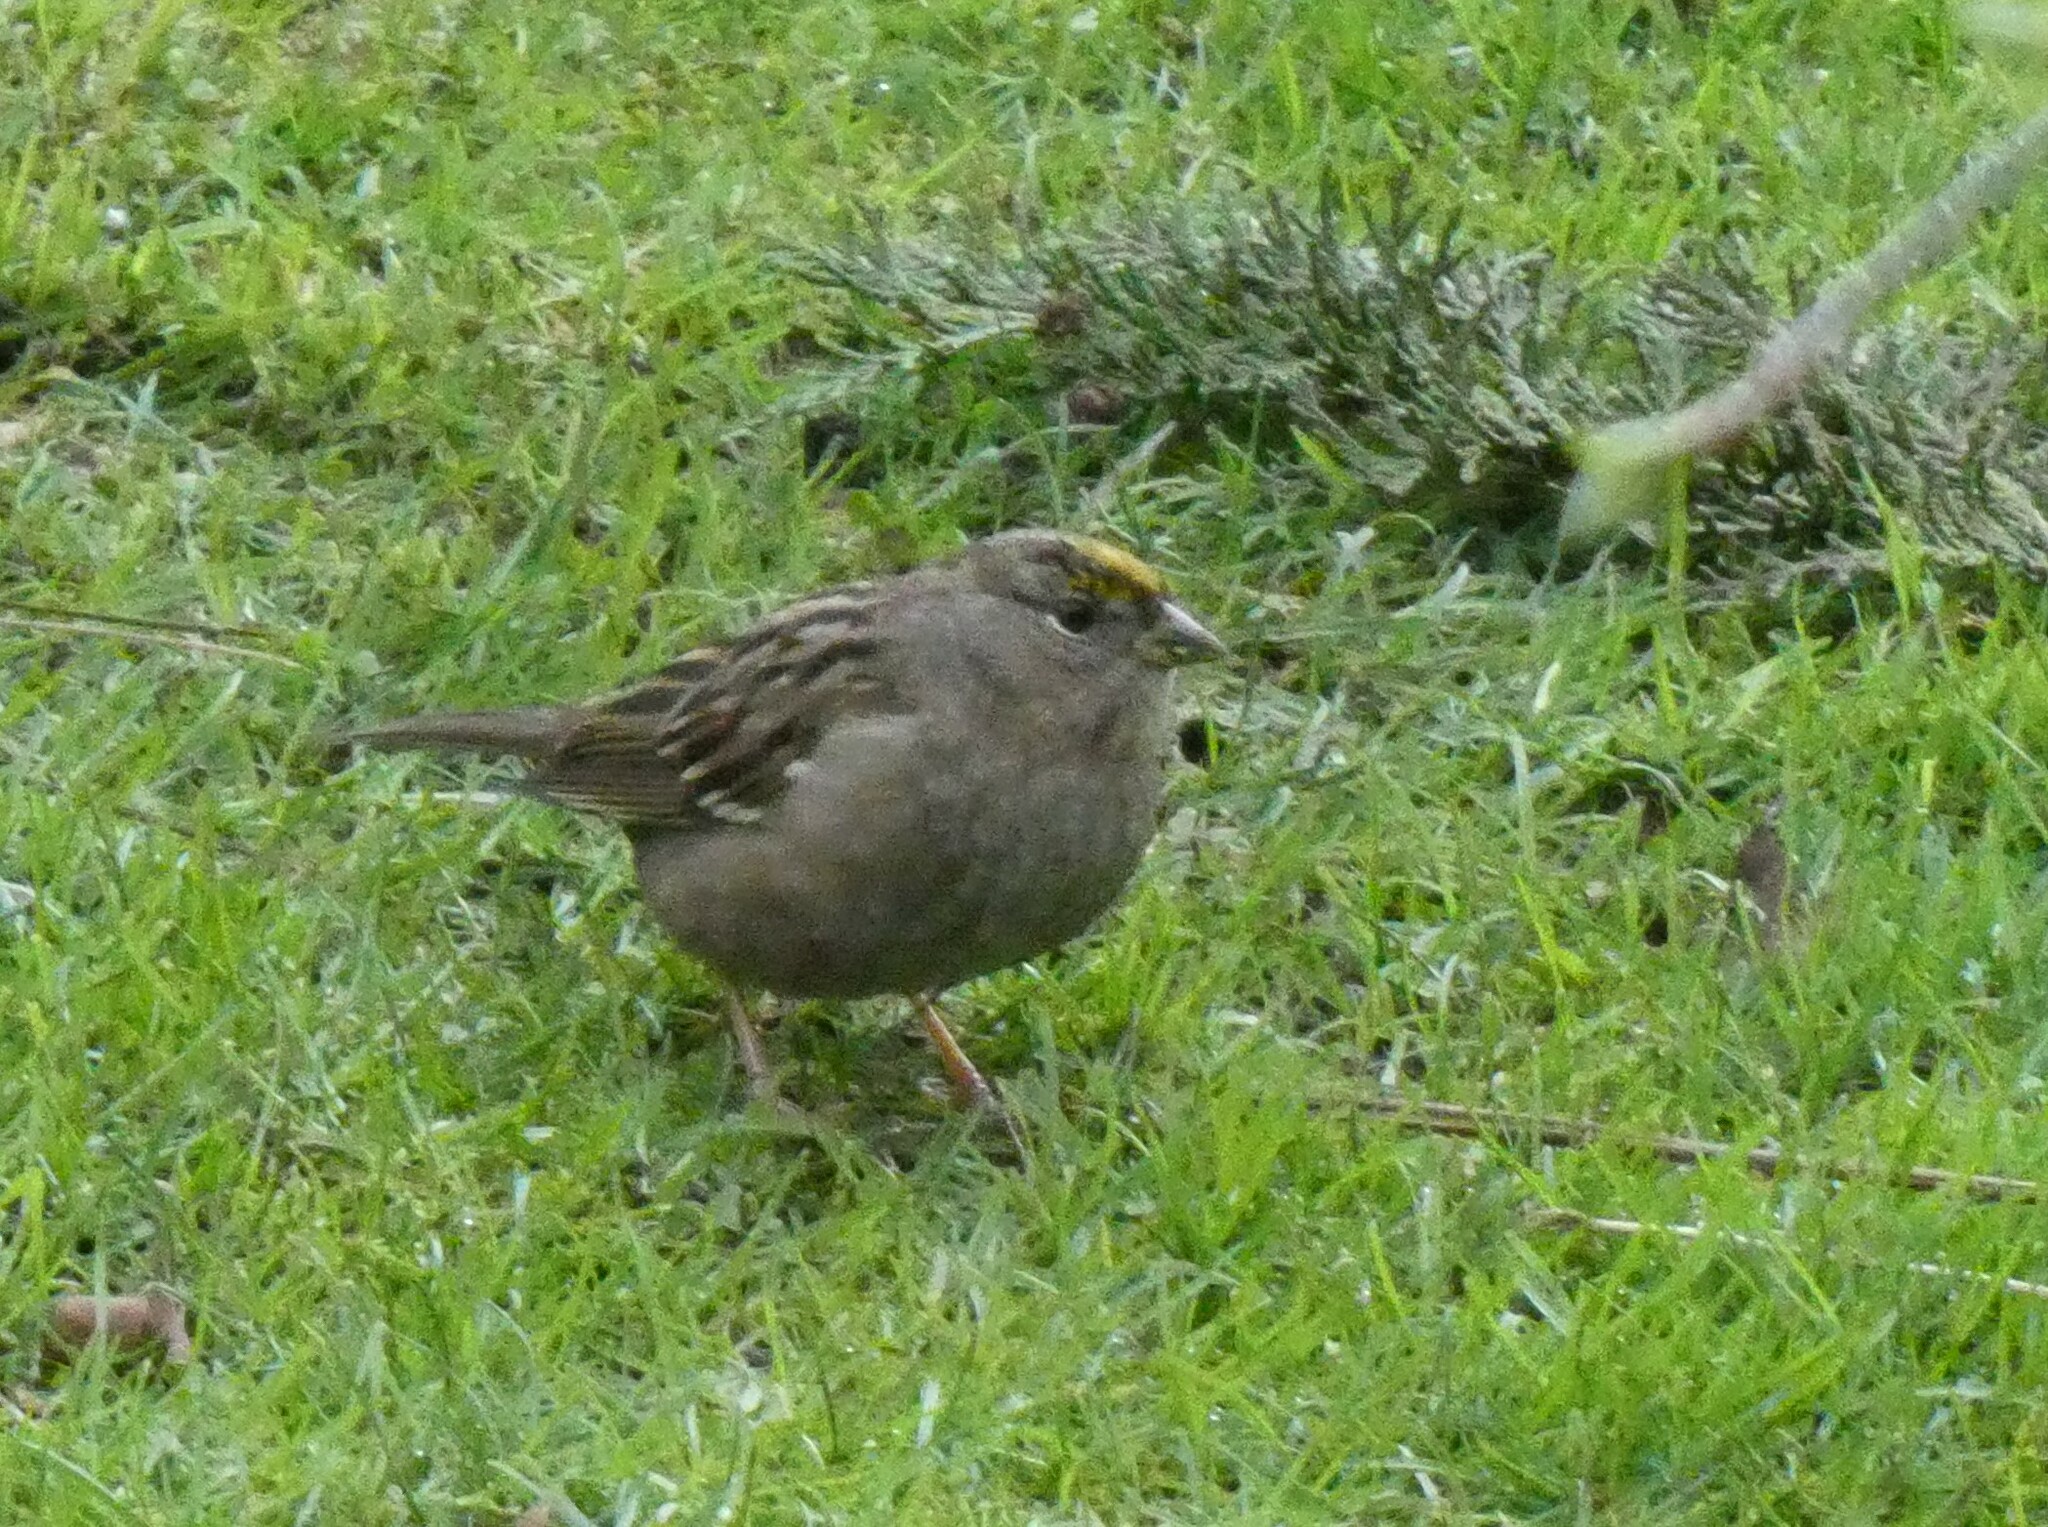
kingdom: Animalia
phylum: Chordata
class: Aves
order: Passeriformes
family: Passerellidae
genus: Zonotrichia
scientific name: Zonotrichia atricapilla
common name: Golden-crowned sparrow
